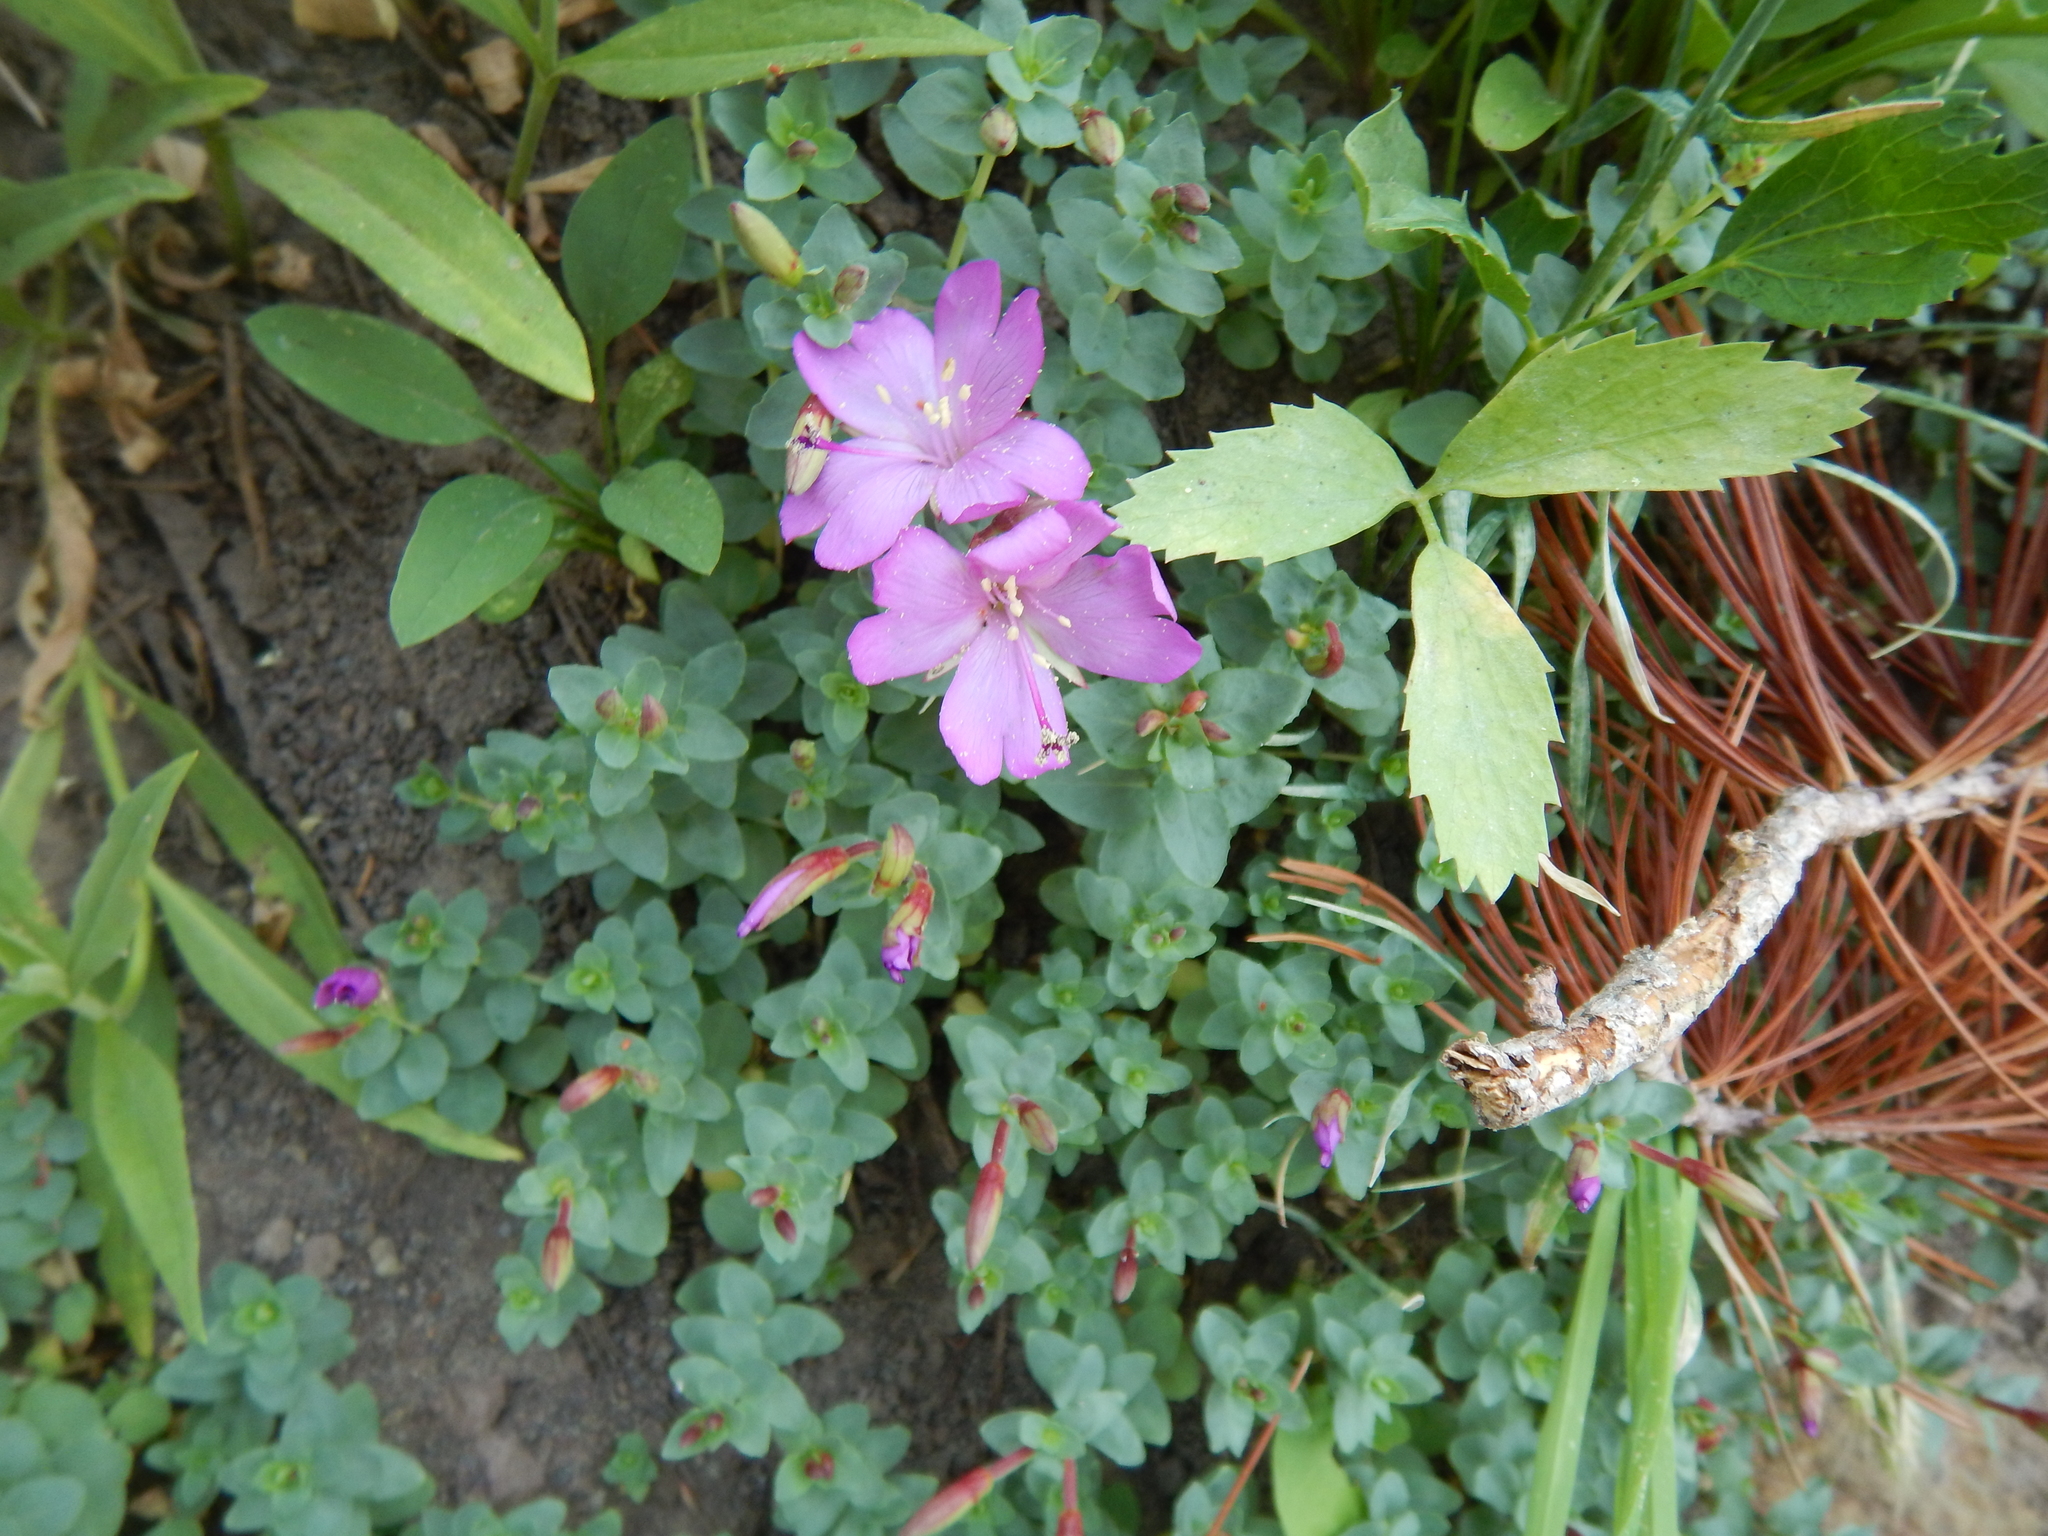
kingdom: Plantae
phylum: Tracheophyta
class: Magnoliopsida
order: Myrtales
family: Onagraceae
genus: Epilobium
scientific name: Epilobium obcordatum
